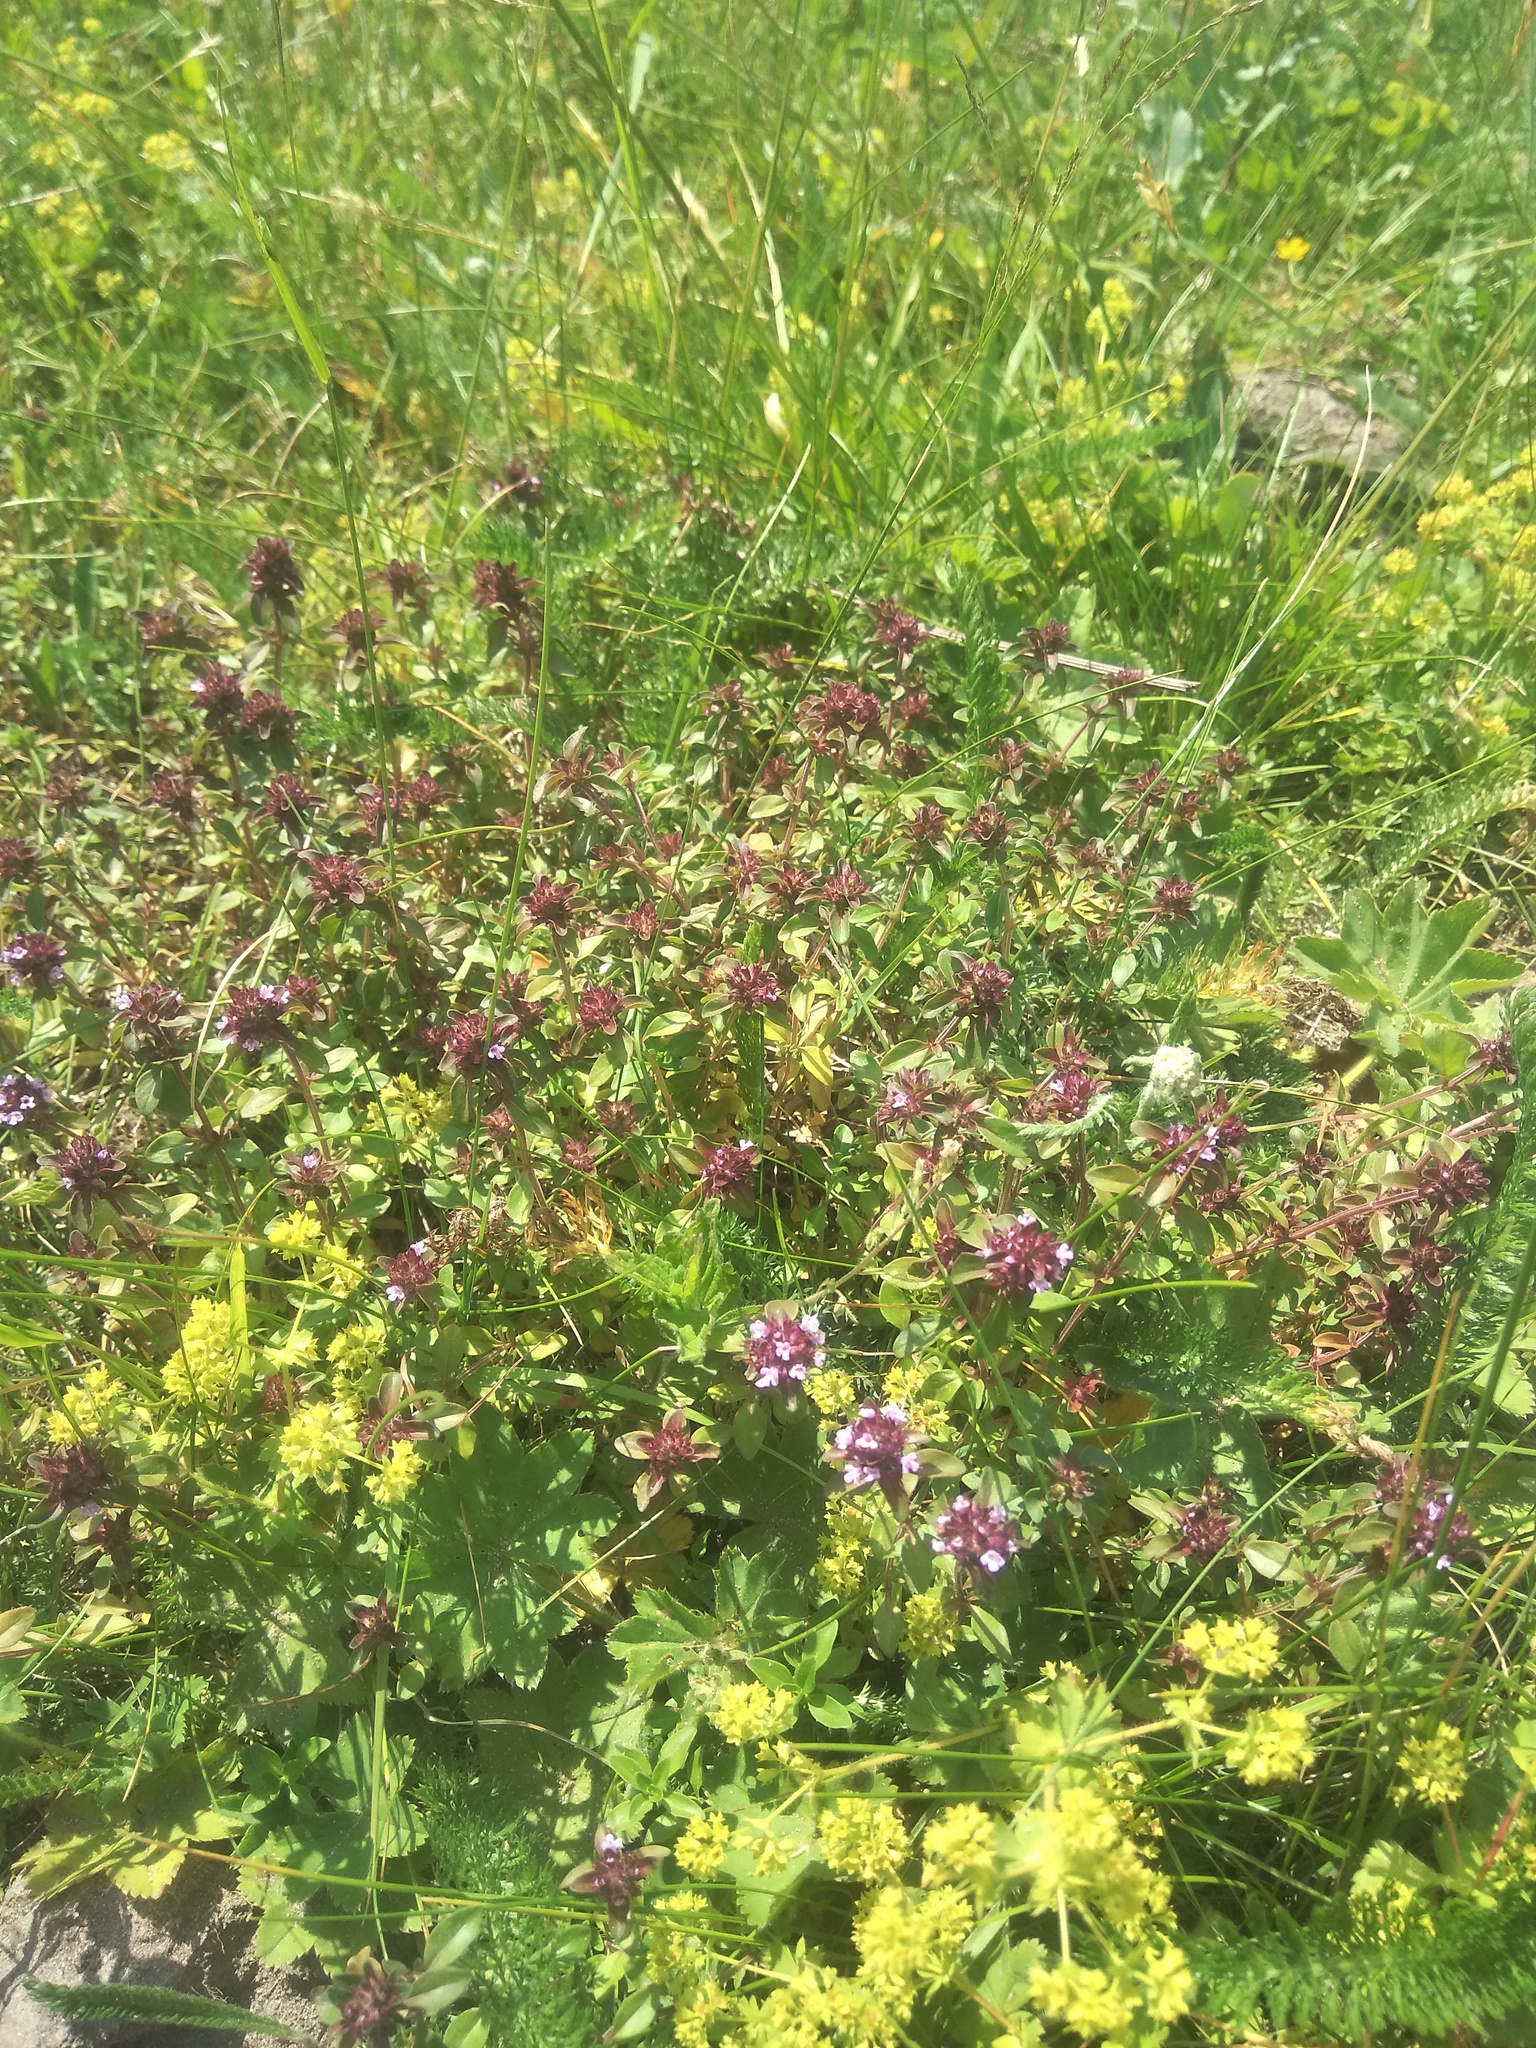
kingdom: Plantae
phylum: Tracheophyta
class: Magnoliopsida
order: Lamiales
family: Lamiaceae
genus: Thymus
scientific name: Thymus pulegioides
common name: Large thyme
